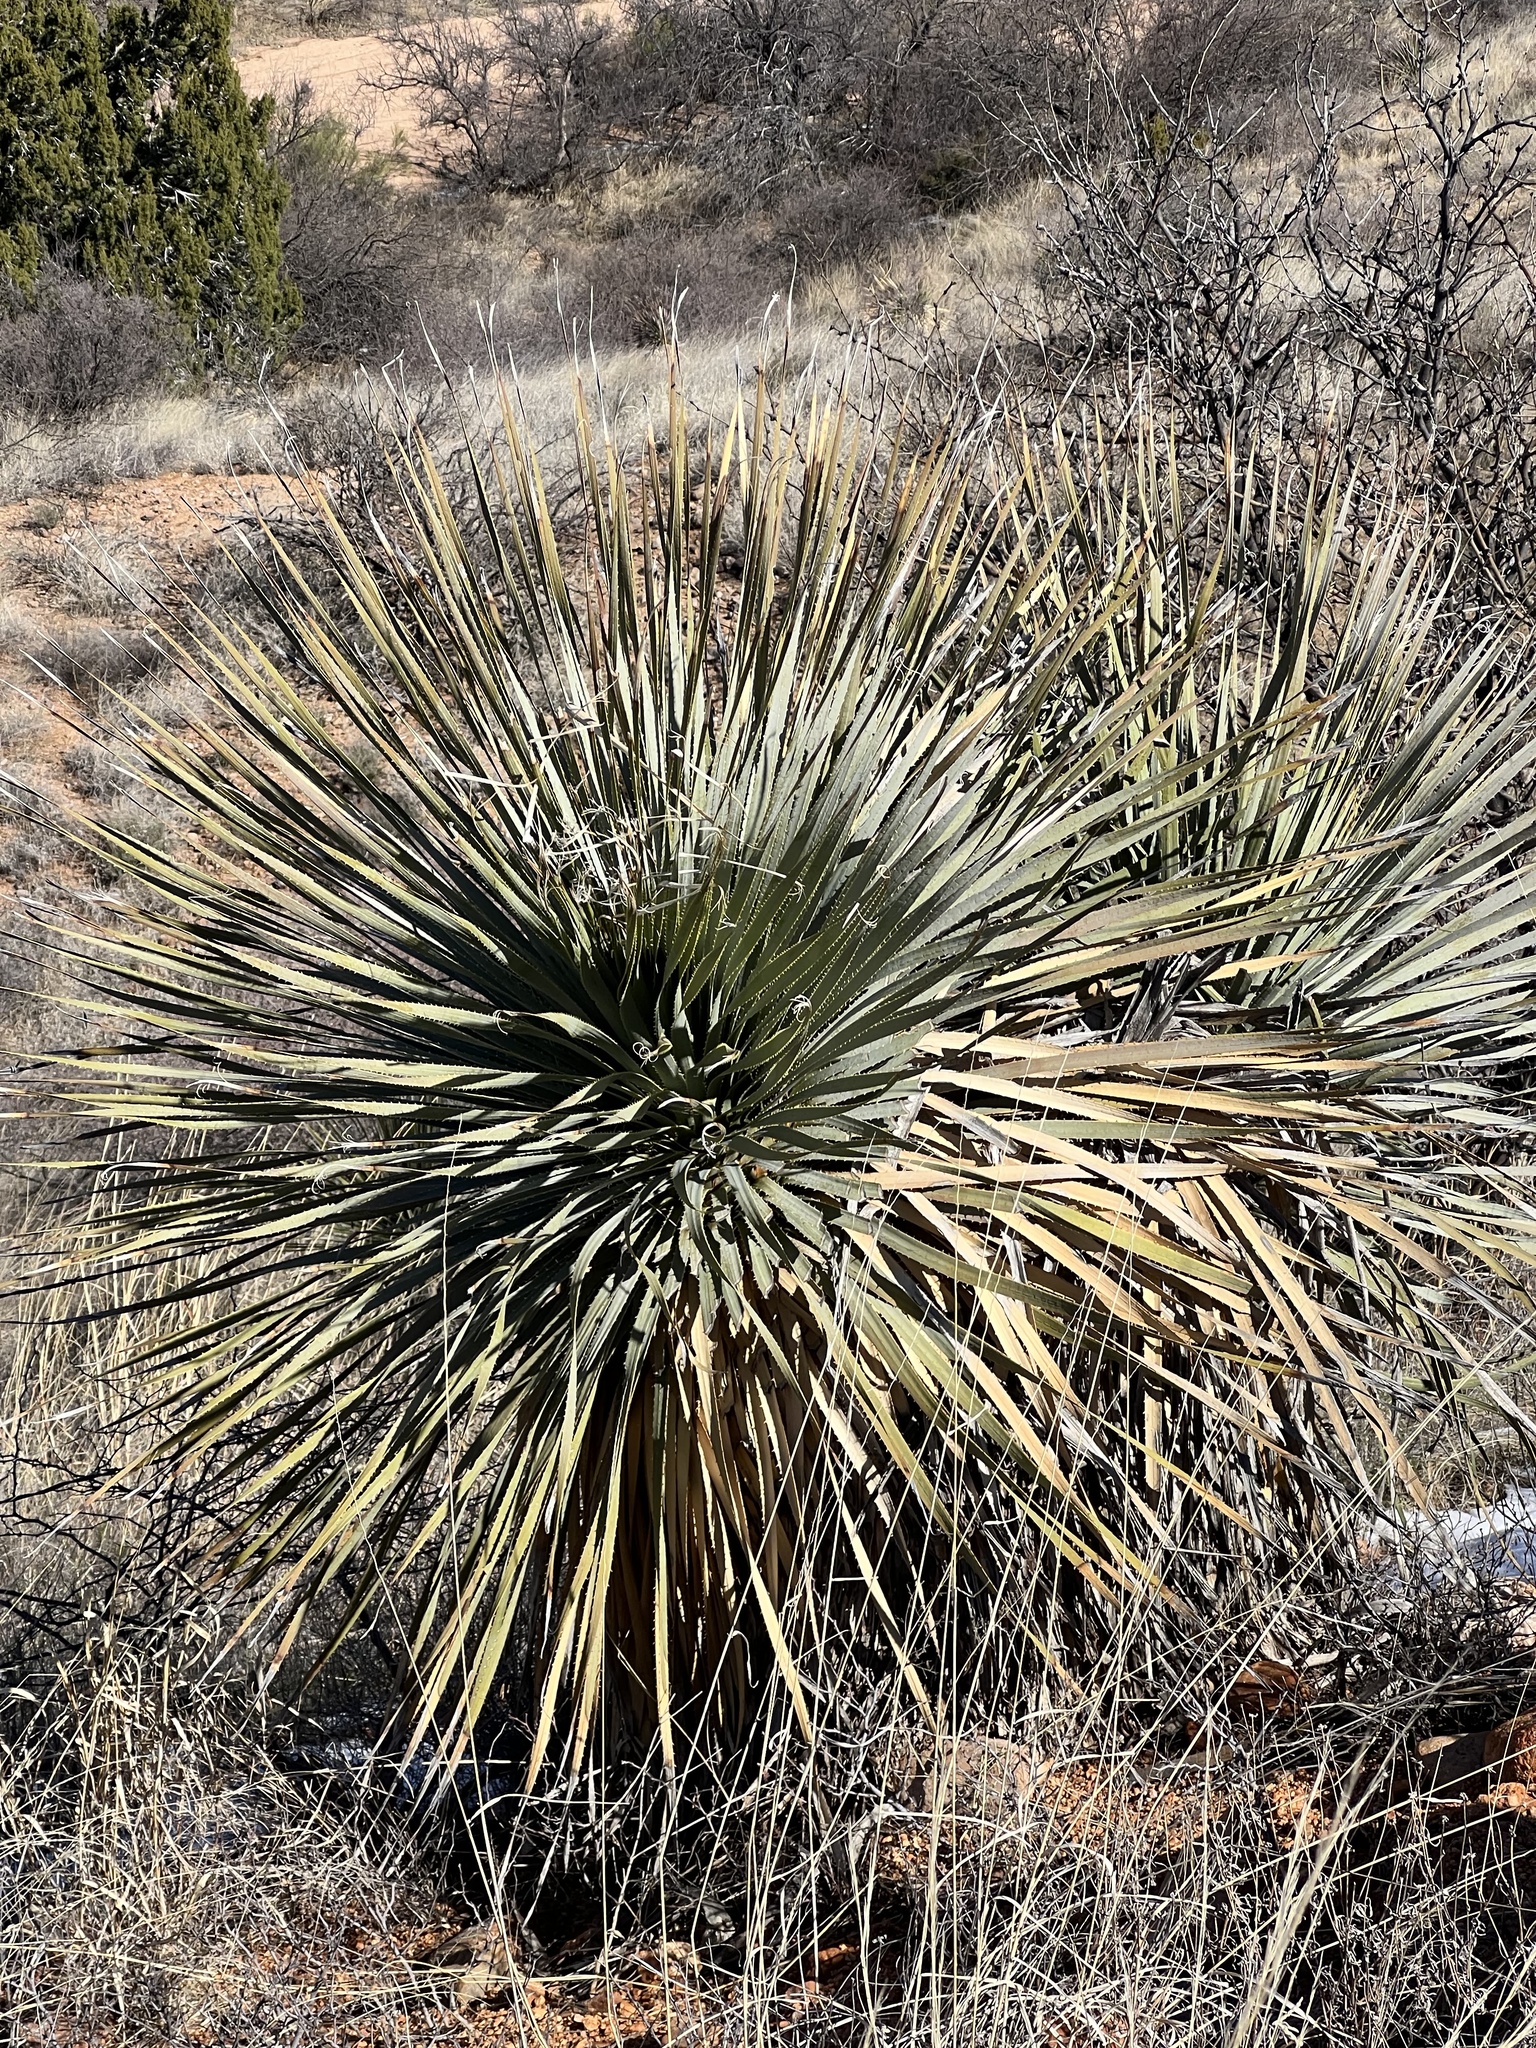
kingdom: Plantae
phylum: Tracheophyta
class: Liliopsida
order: Asparagales
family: Asparagaceae
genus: Dasylirion
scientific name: Dasylirion wheeleri
